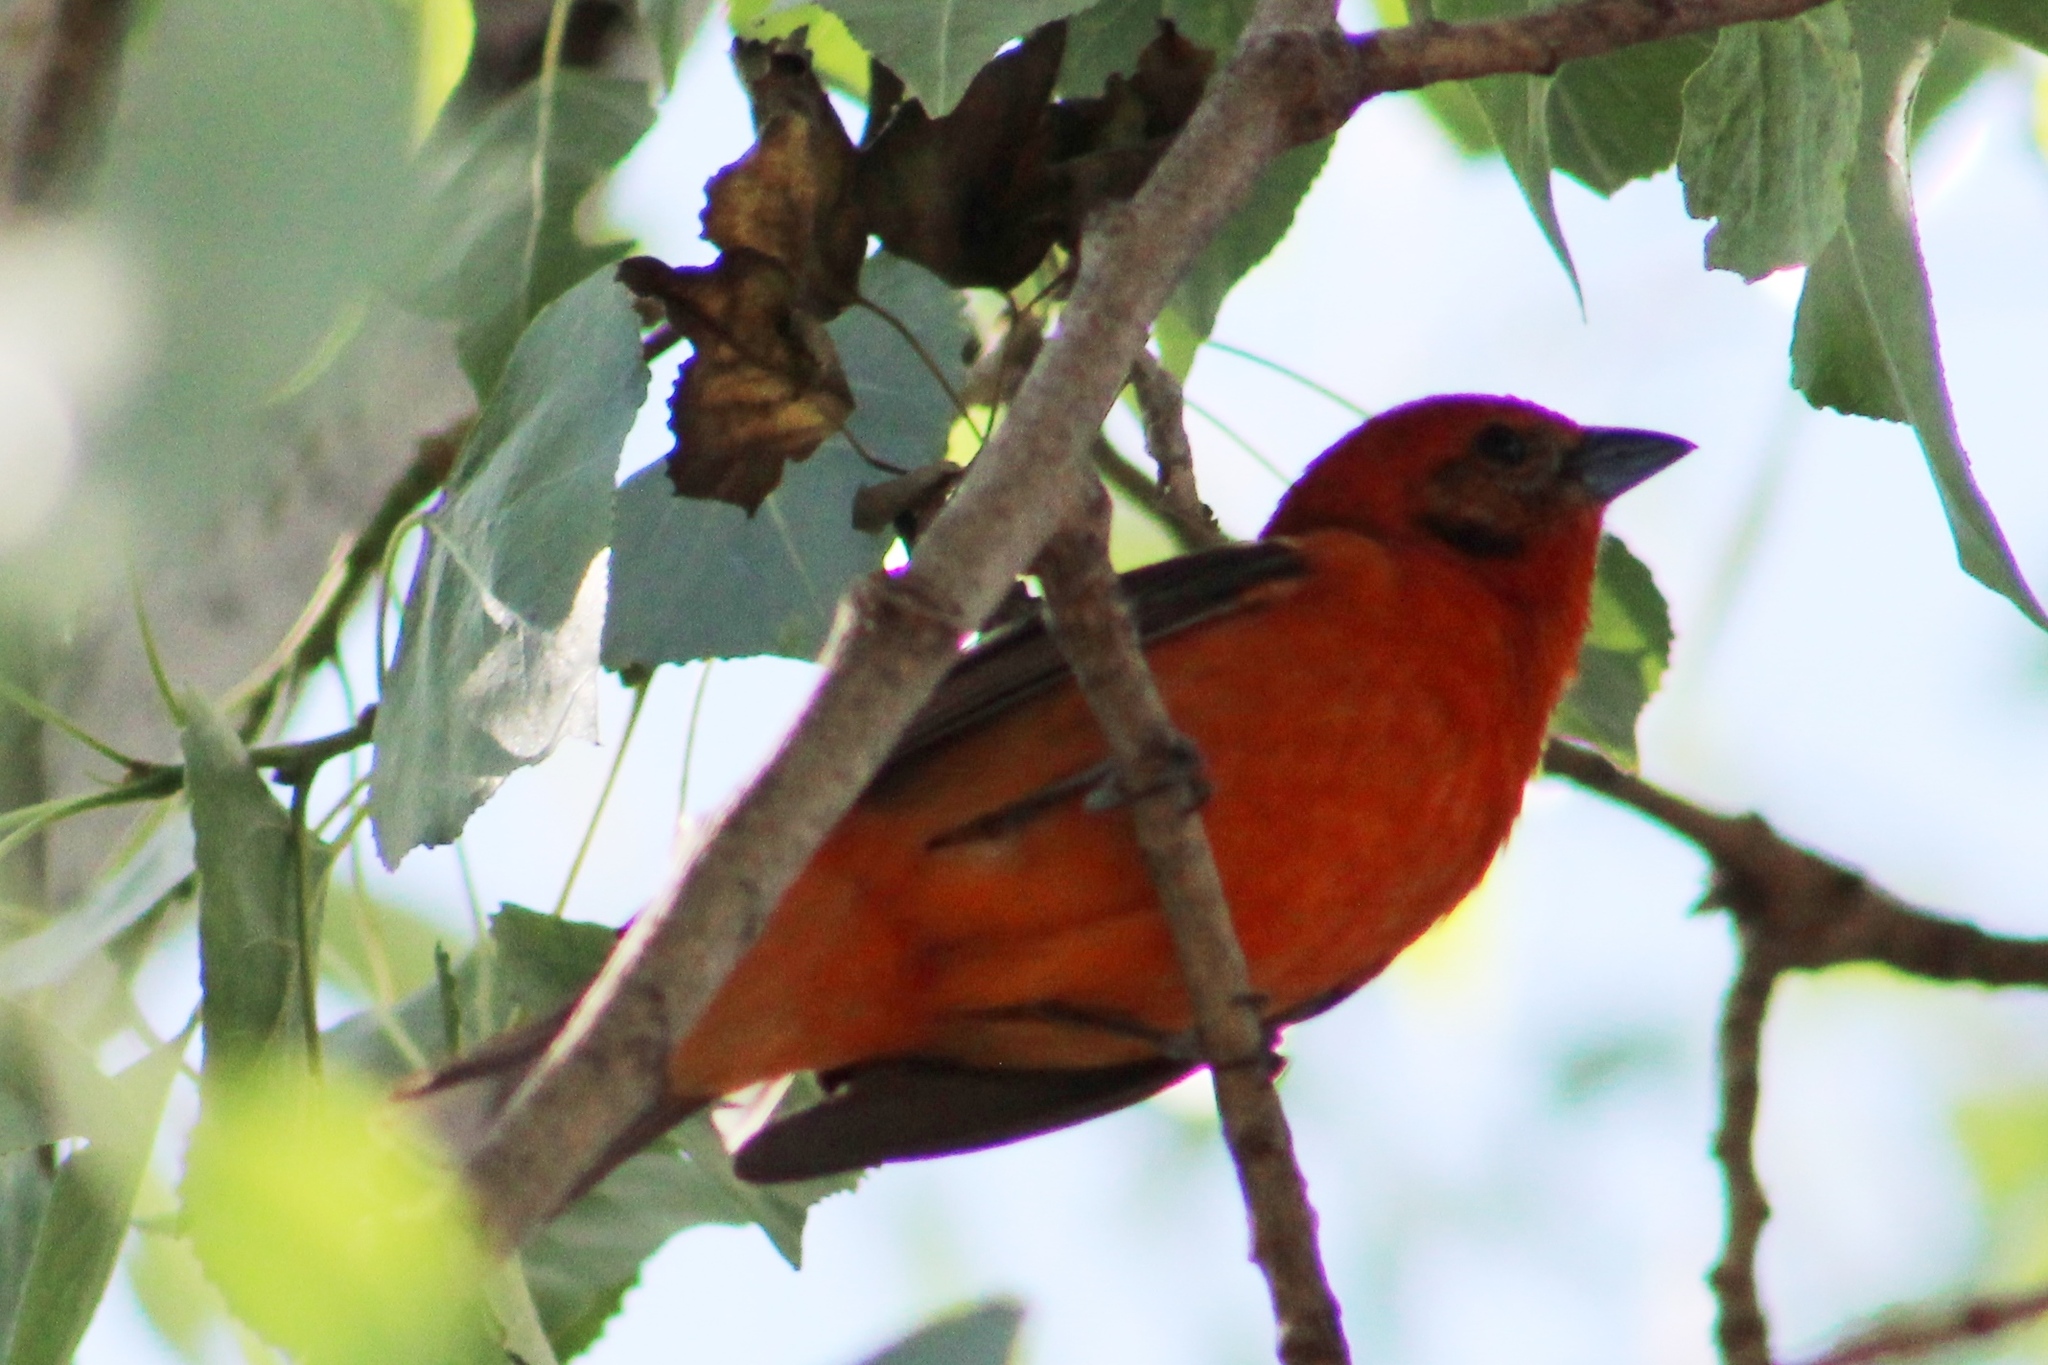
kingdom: Animalia
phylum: Chordata
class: Aves
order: Passeriformes
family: Cardinalidae
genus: Piranga
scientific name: Piranga bidentata
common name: Flame-colored tanager
